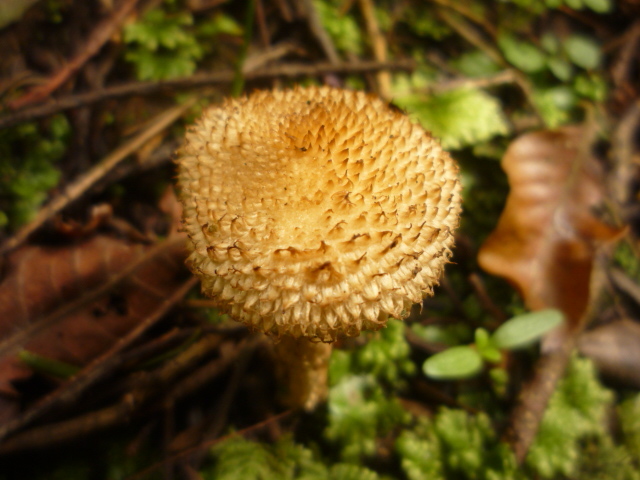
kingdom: Fungi
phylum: Basidiomycota
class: Agaricomycetes
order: Agaricales
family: Psathyrellaceae
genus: Psathyrella
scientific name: Psathyrella asperospora
